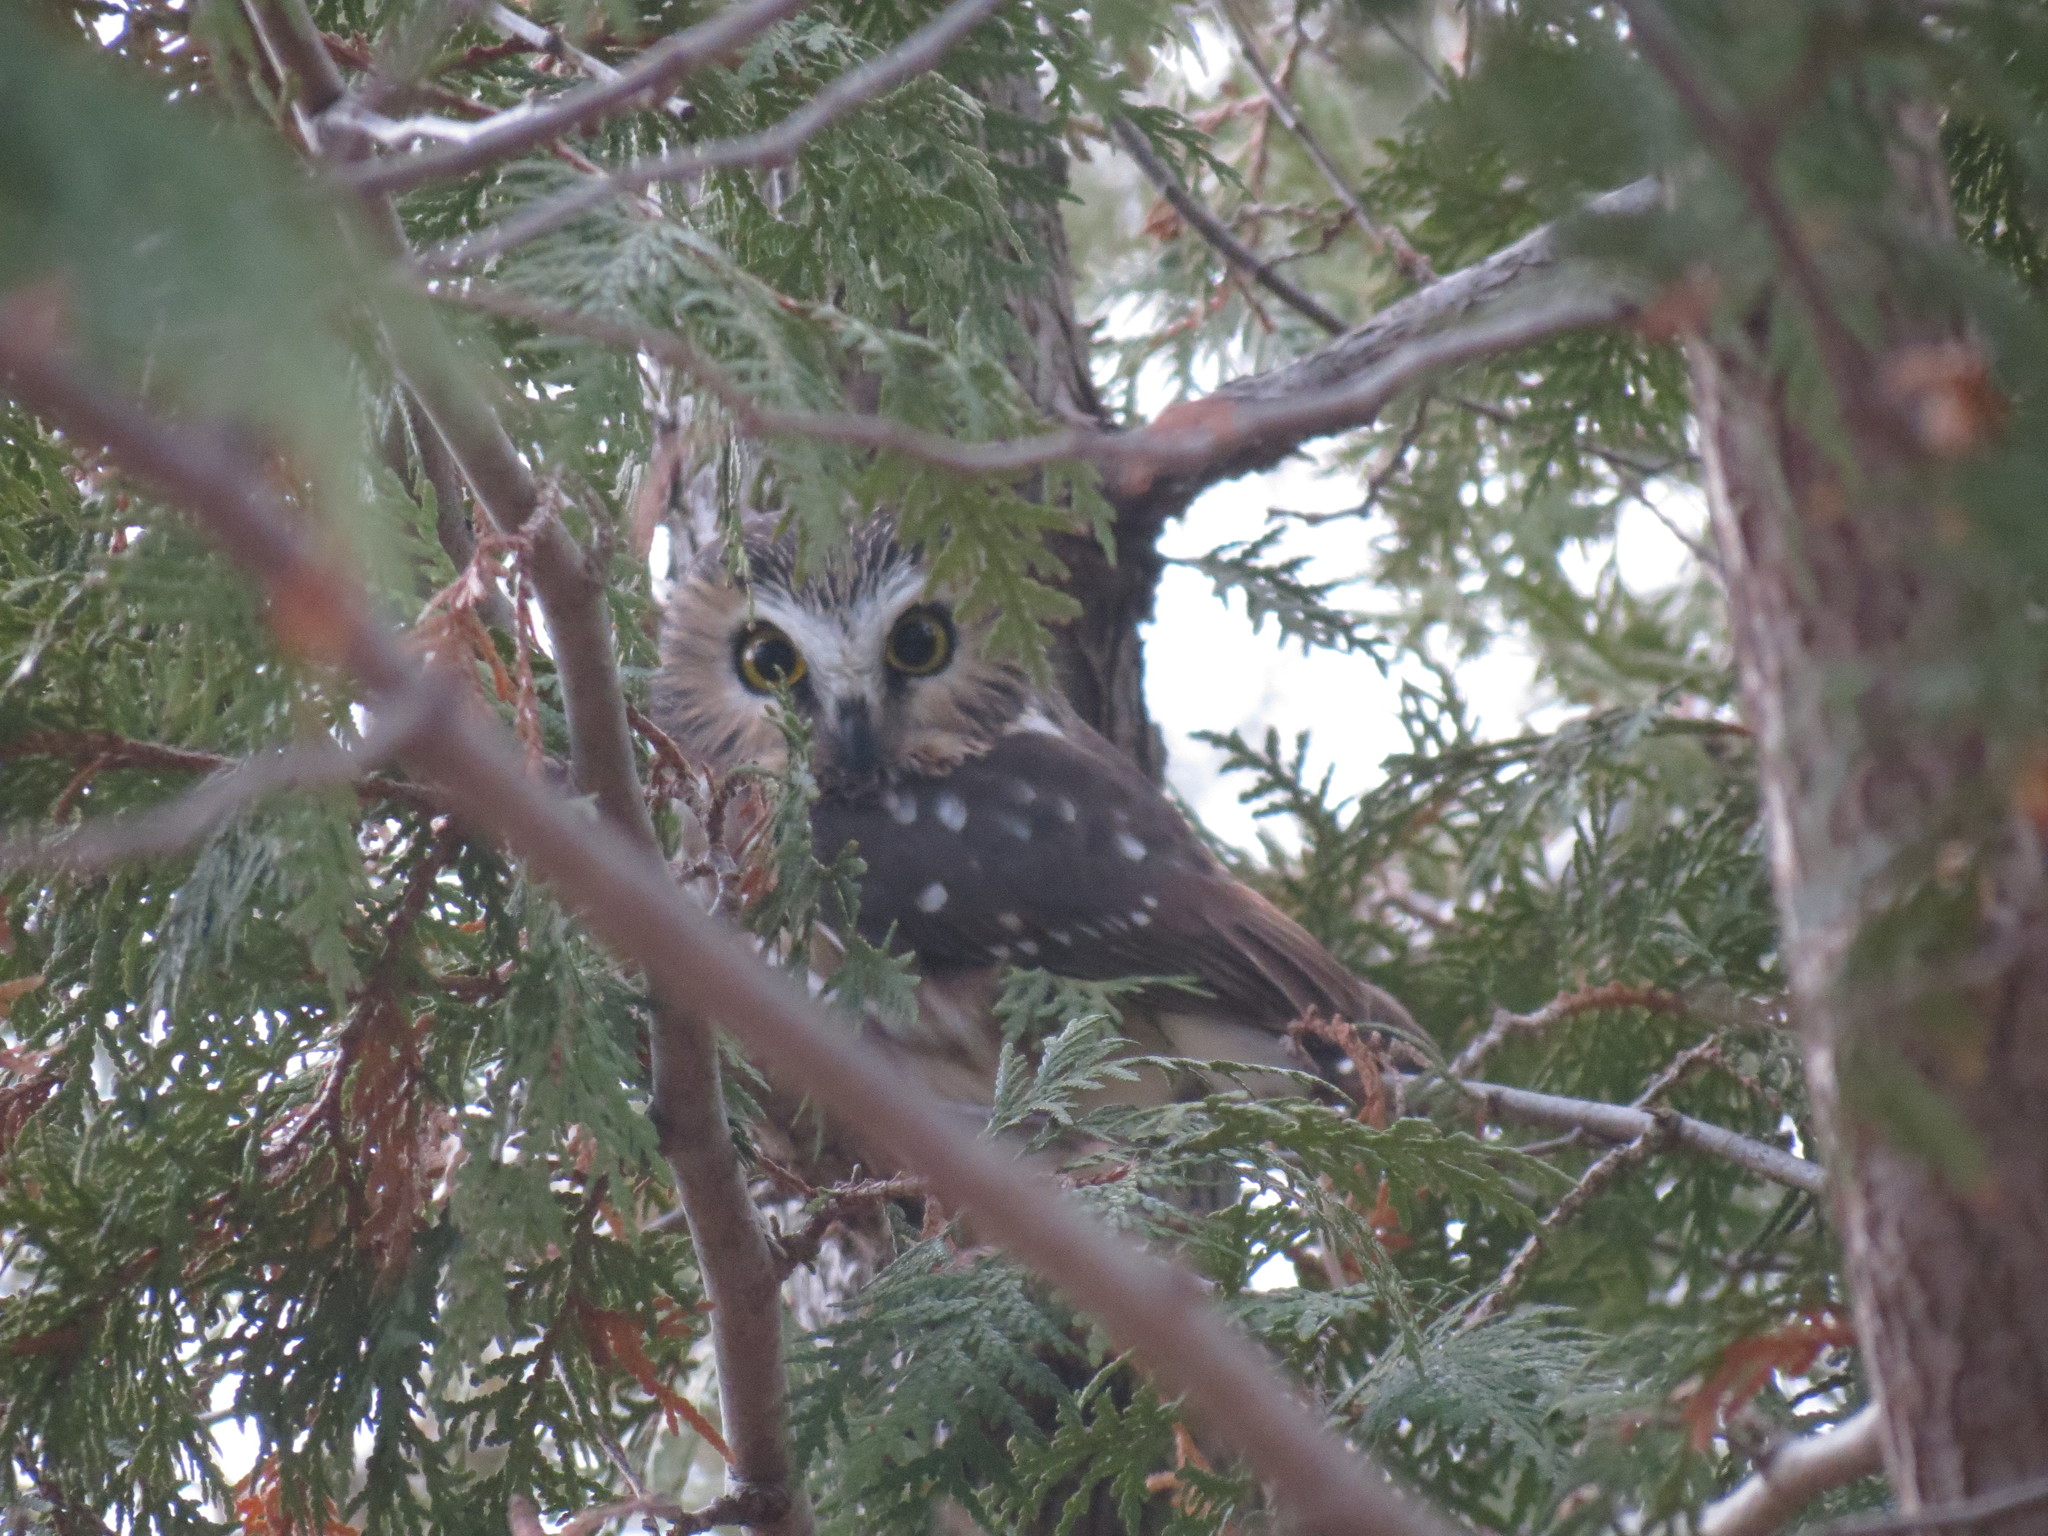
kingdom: Animalia
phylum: Chordata
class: Aves
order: Strigiformes
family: Strigidae
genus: Aegolius
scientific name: Aegolius acadicus
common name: Northern saw-whet owl
